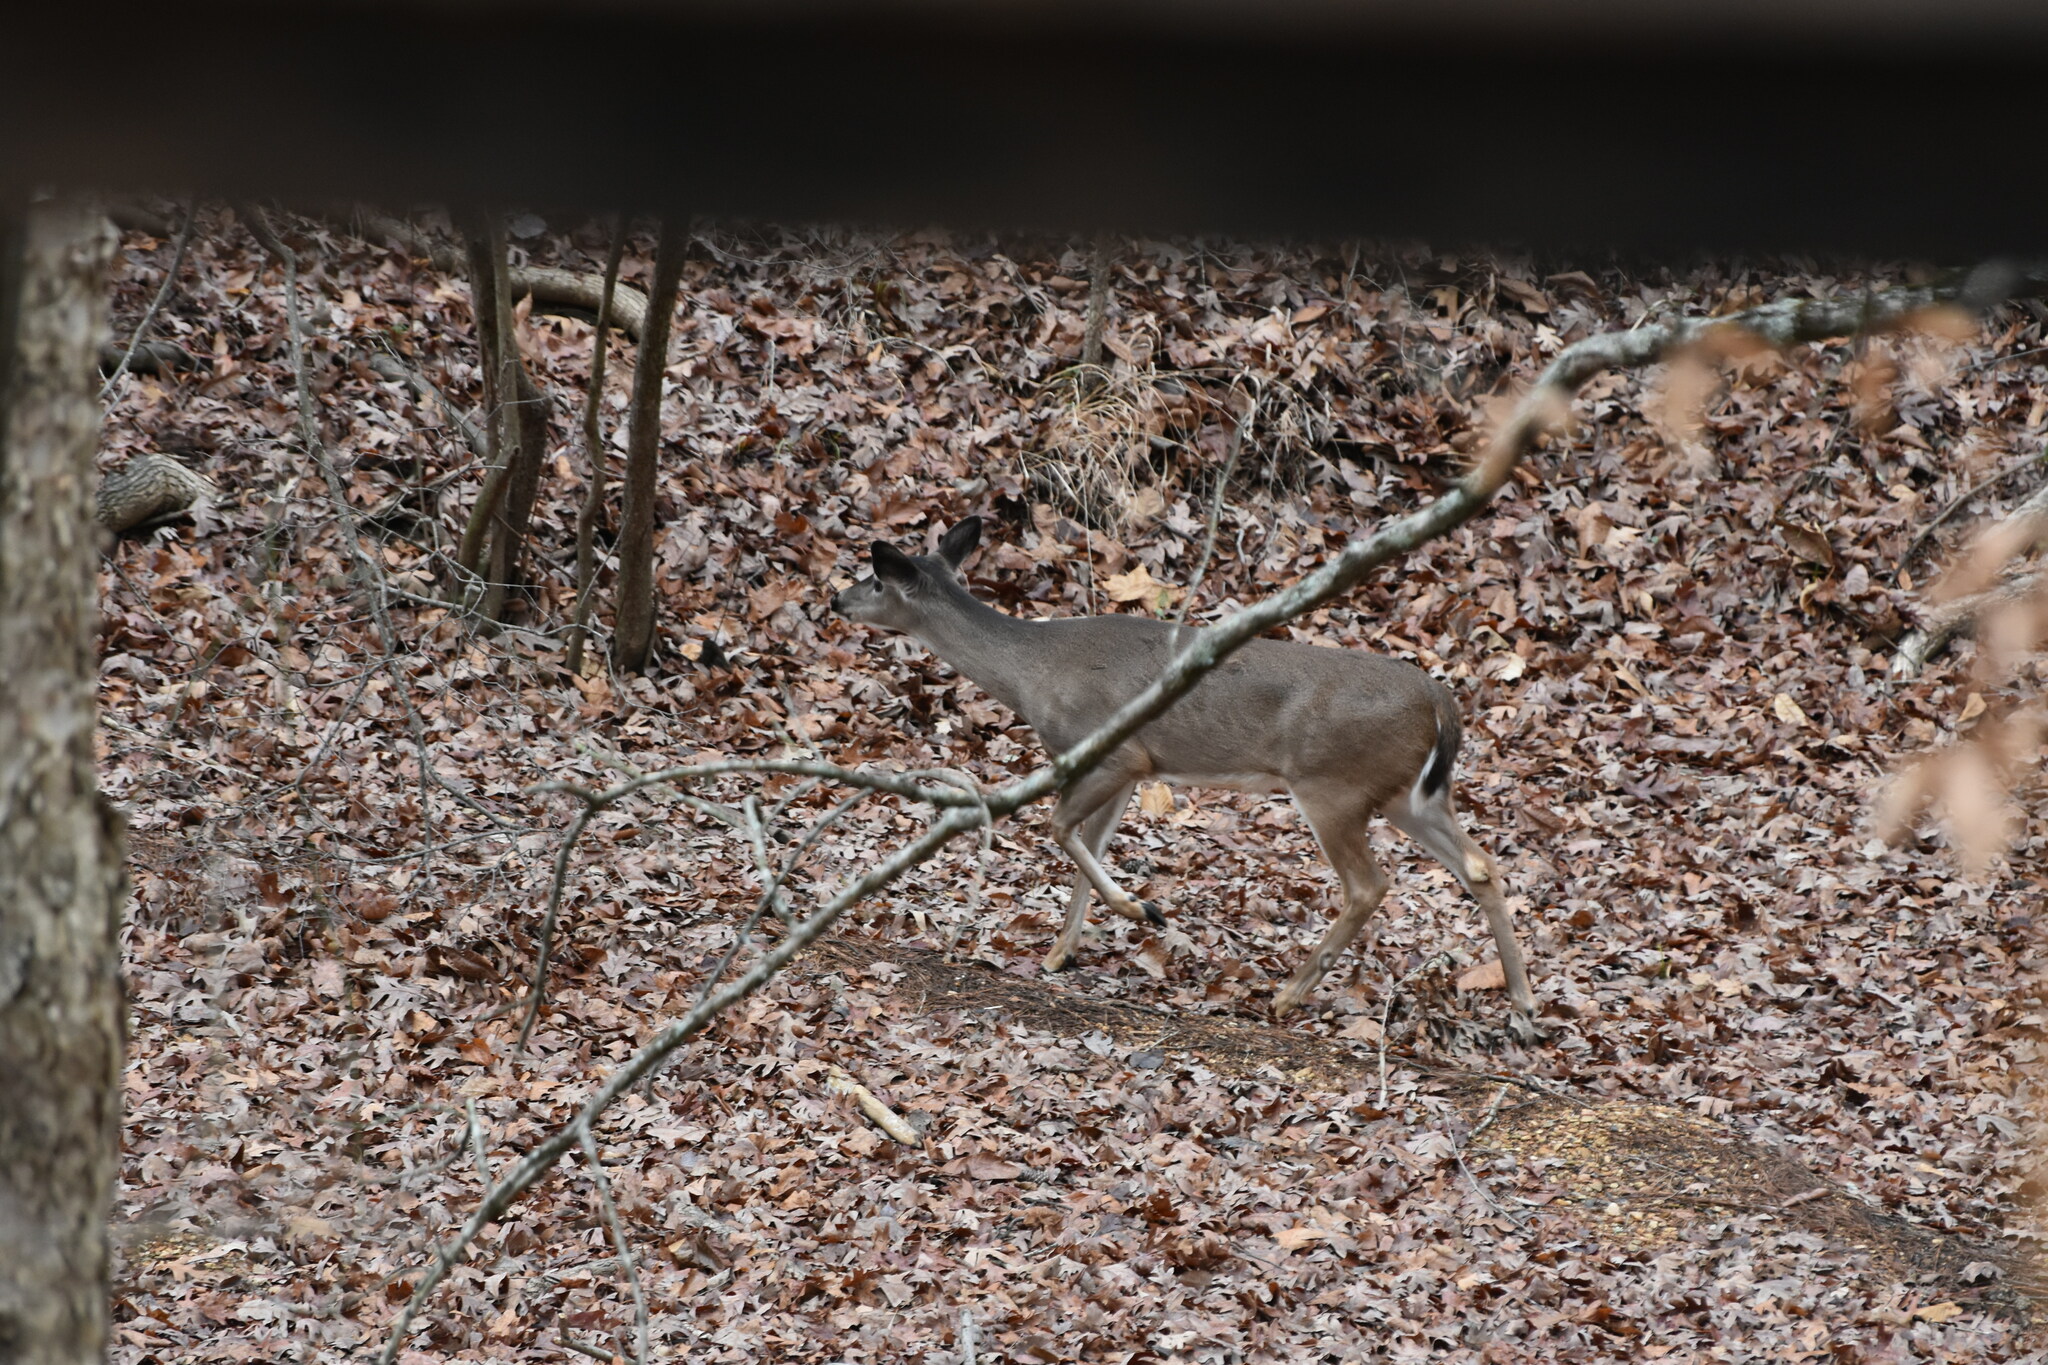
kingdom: Animalia
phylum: Chordata
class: Mammalia
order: Artiodactyla
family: Cervidae
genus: Odocoileus
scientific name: Odocoileus virginianus
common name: White-tailed deer
